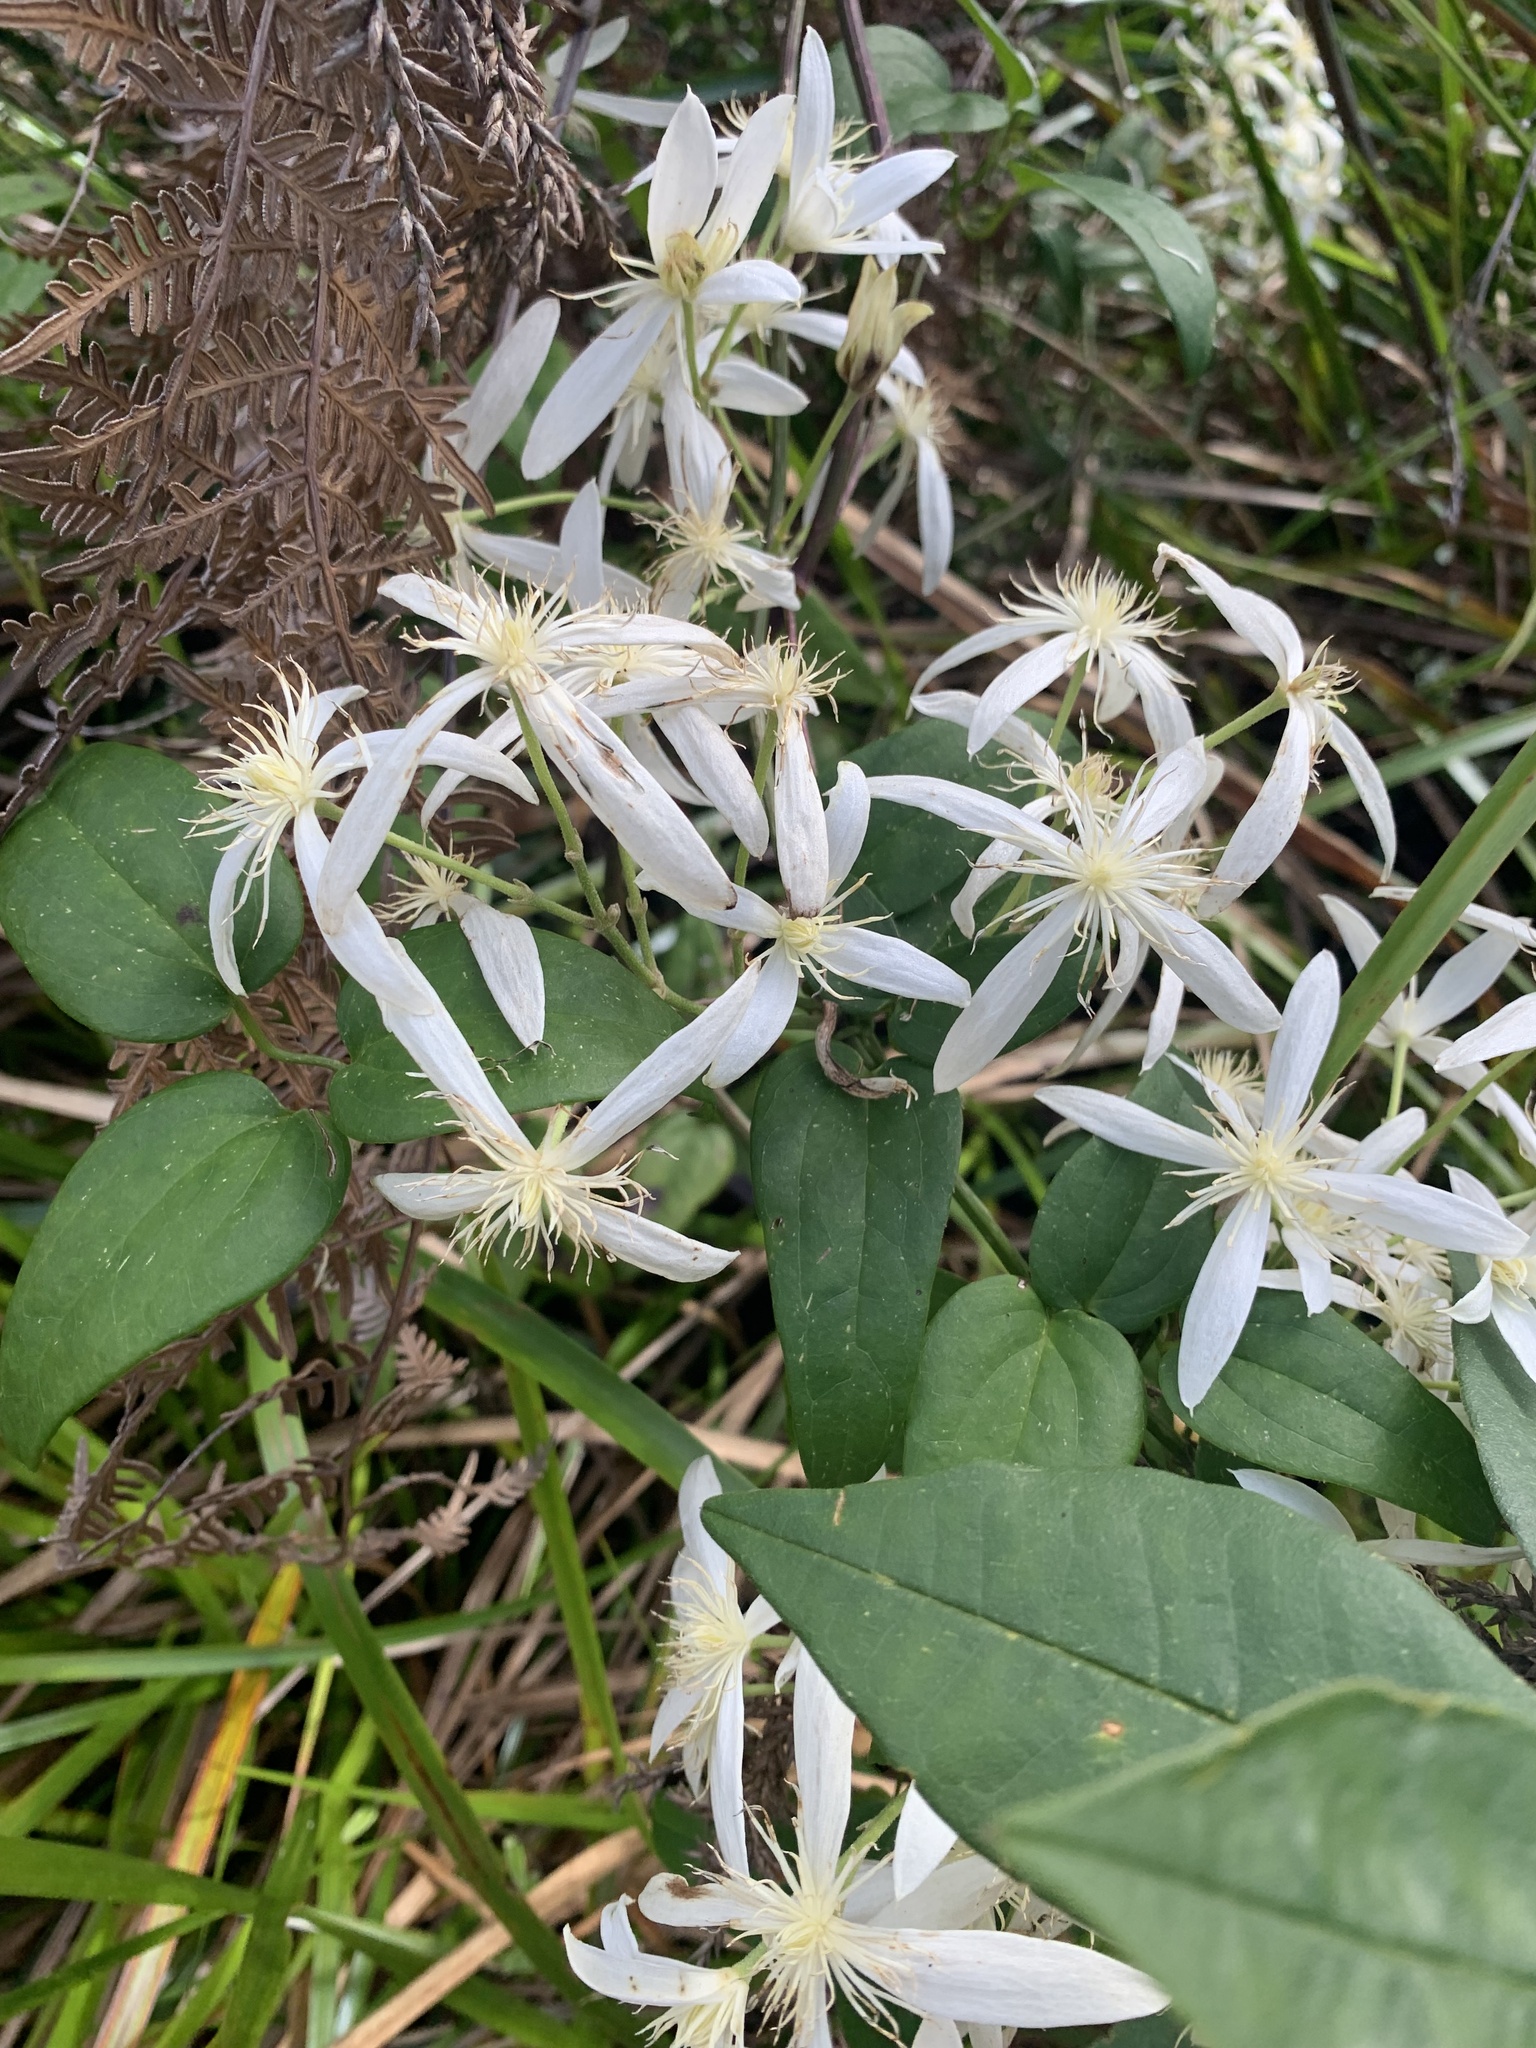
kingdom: Plantae
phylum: Tracheophyta
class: Magnoliopsida
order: Ranunculales
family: Ranunculaceae
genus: Clematis
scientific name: Clematis pubescens
